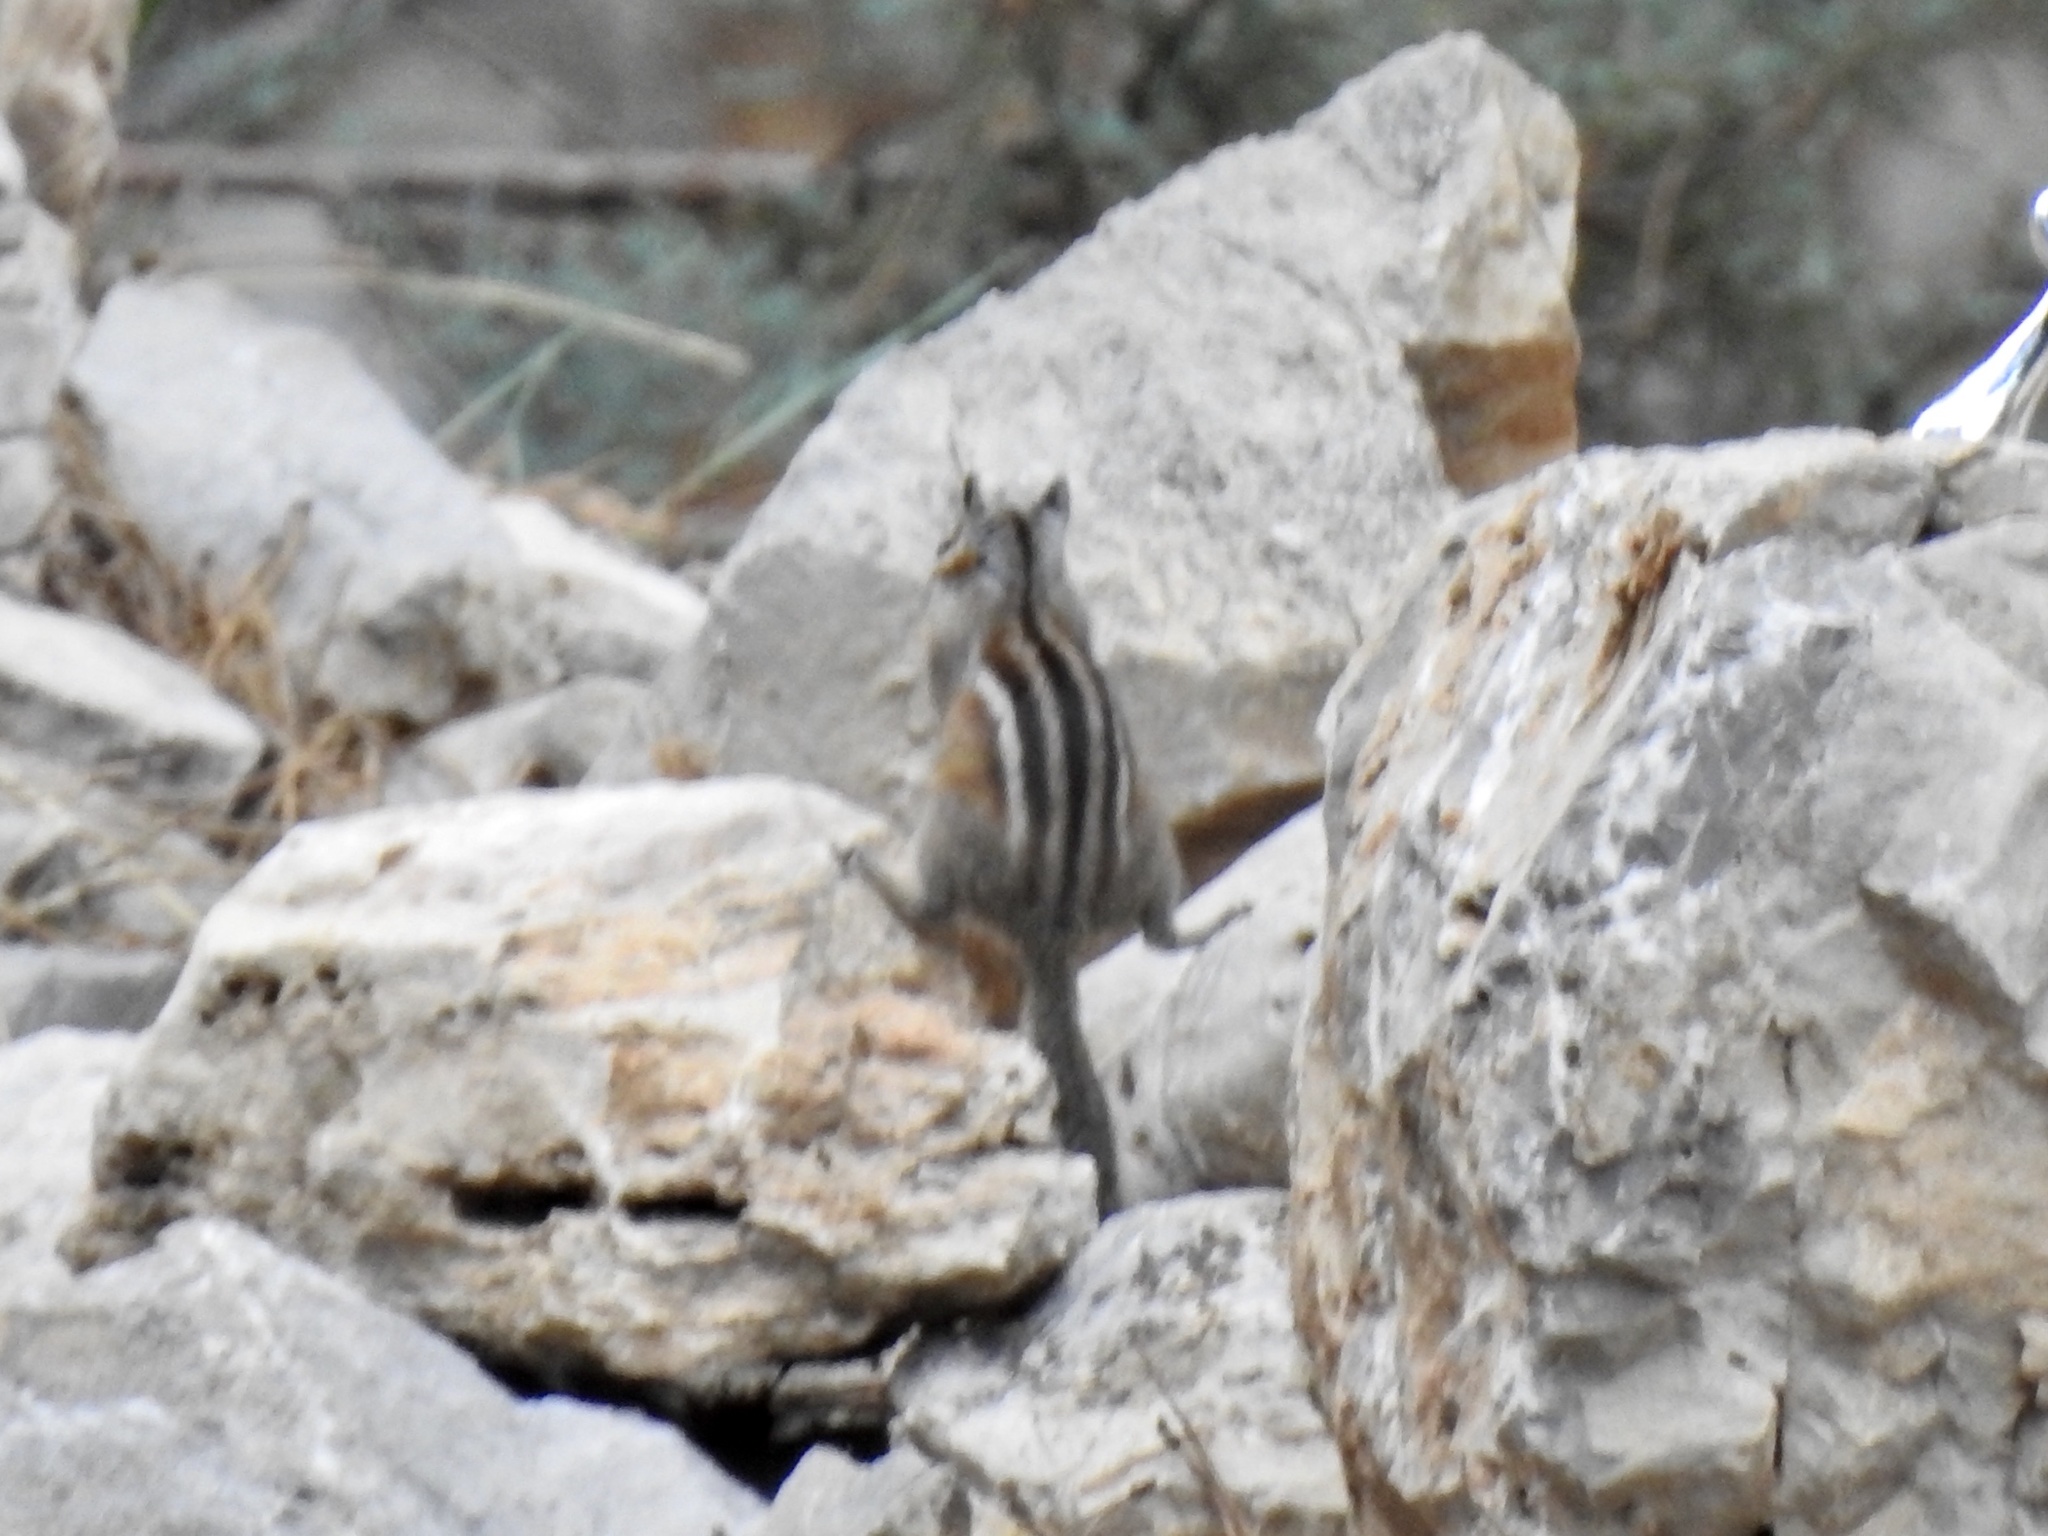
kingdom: Animalia
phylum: Chordata
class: Mammalia
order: Rodentia
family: Sciuridae
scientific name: Sciuridae
